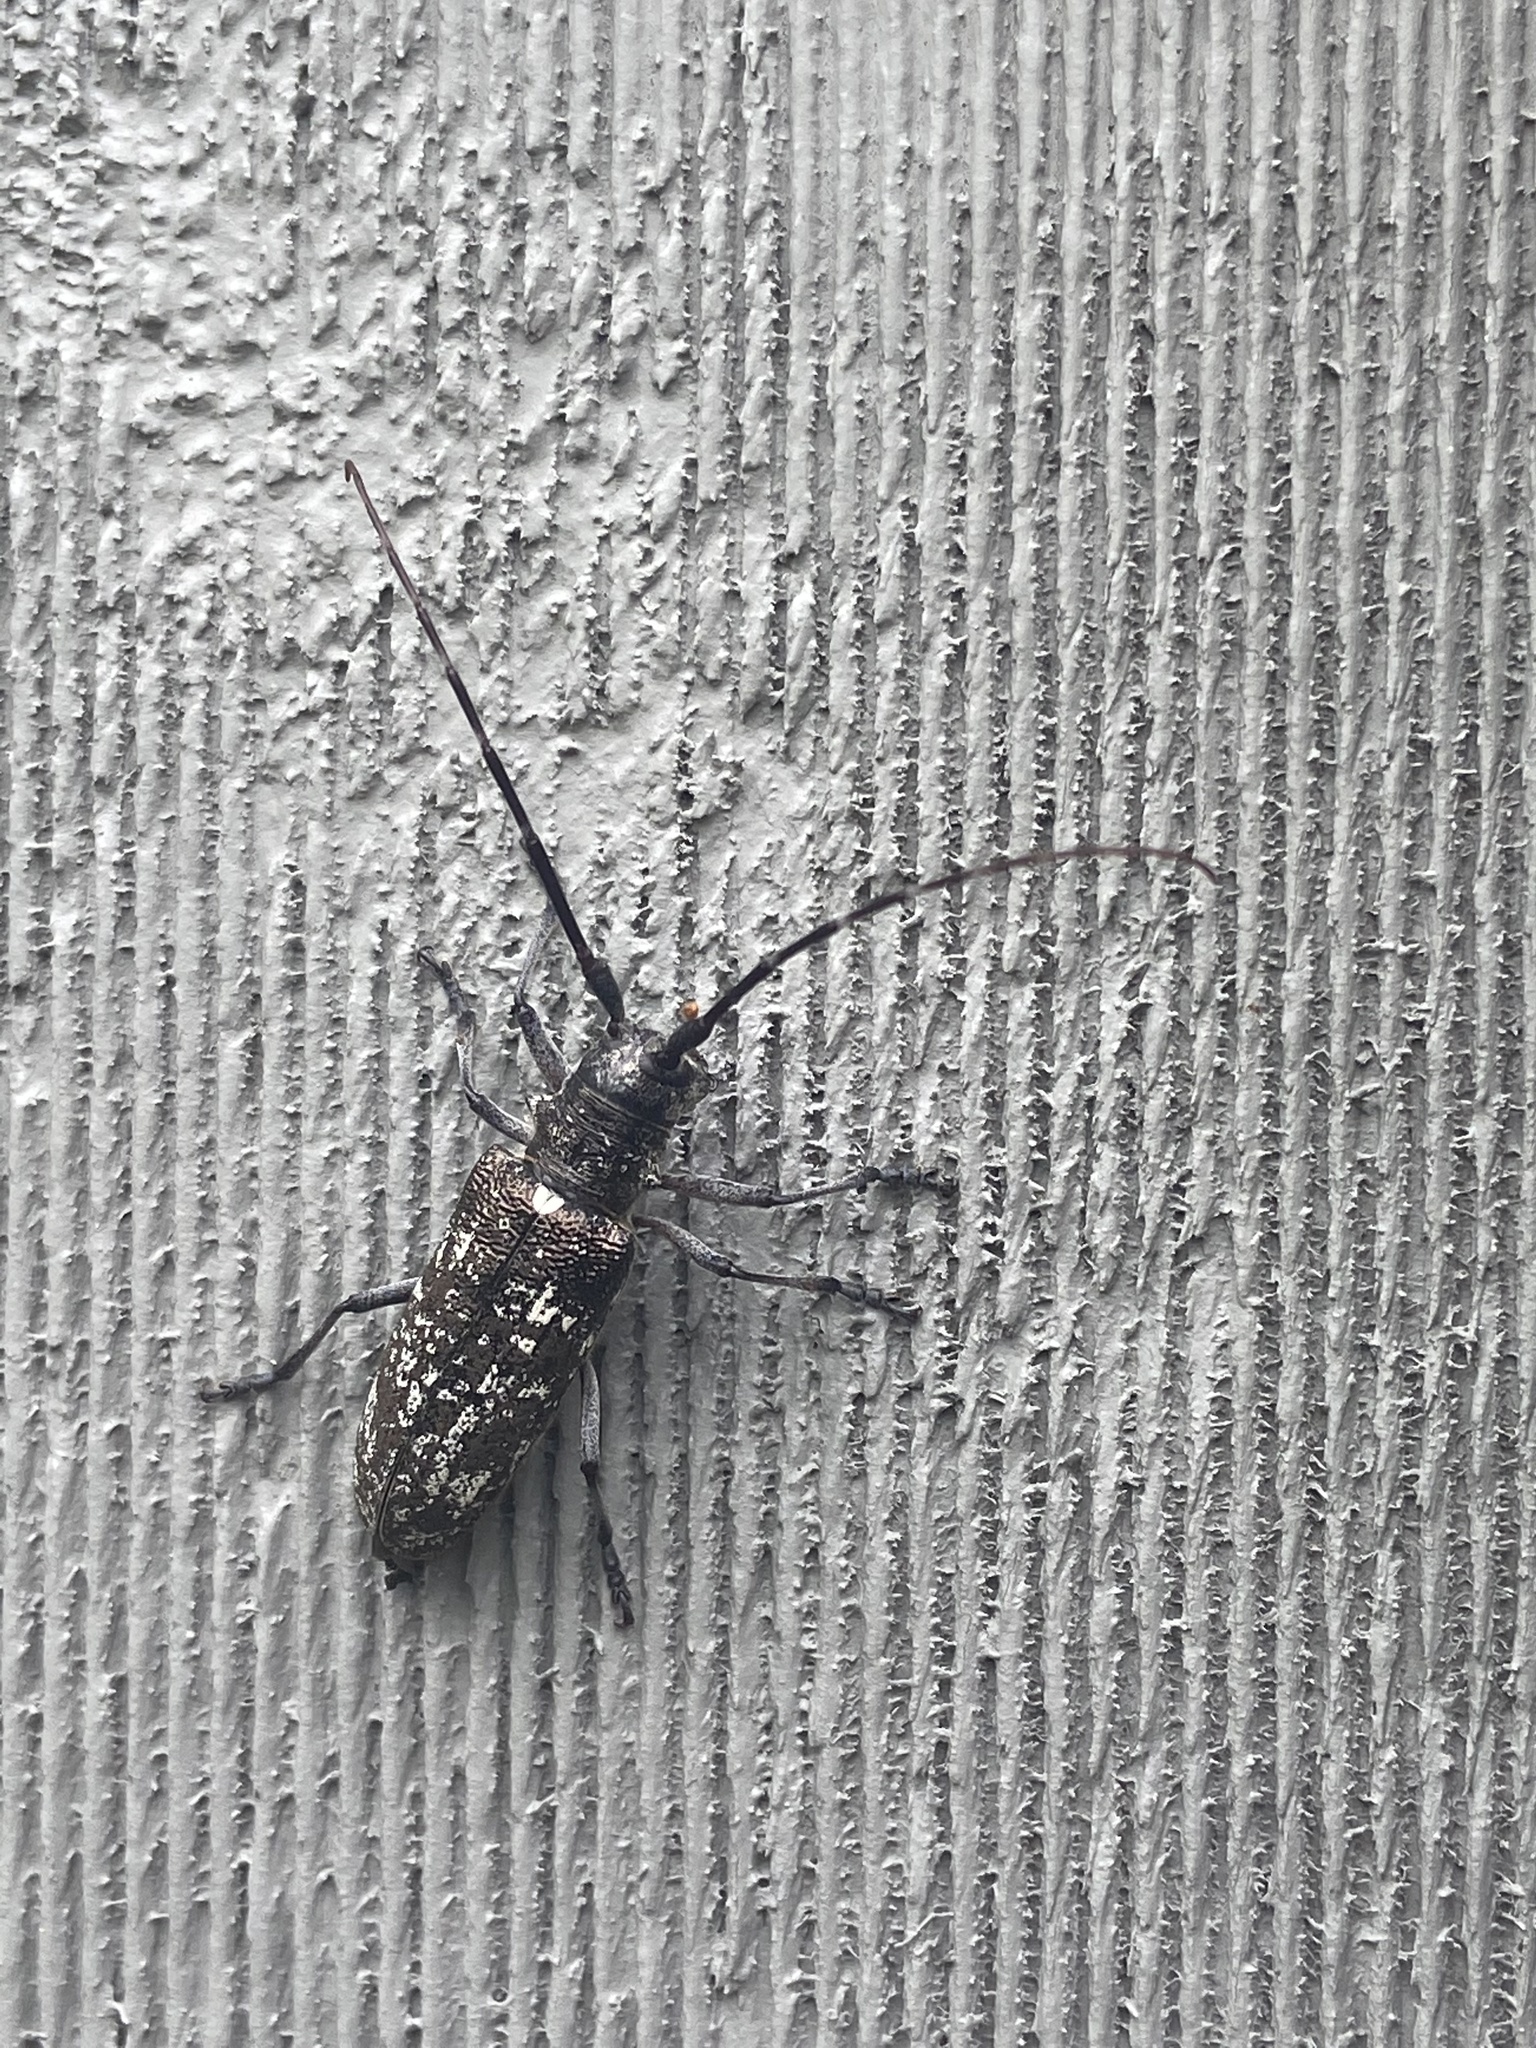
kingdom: Animalia
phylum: Arthropoda
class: Insecta
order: Coleoptera
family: Cerambycidae
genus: Monochamus
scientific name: Monochamus scutellatus
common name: White-spotted sawyer beetle
